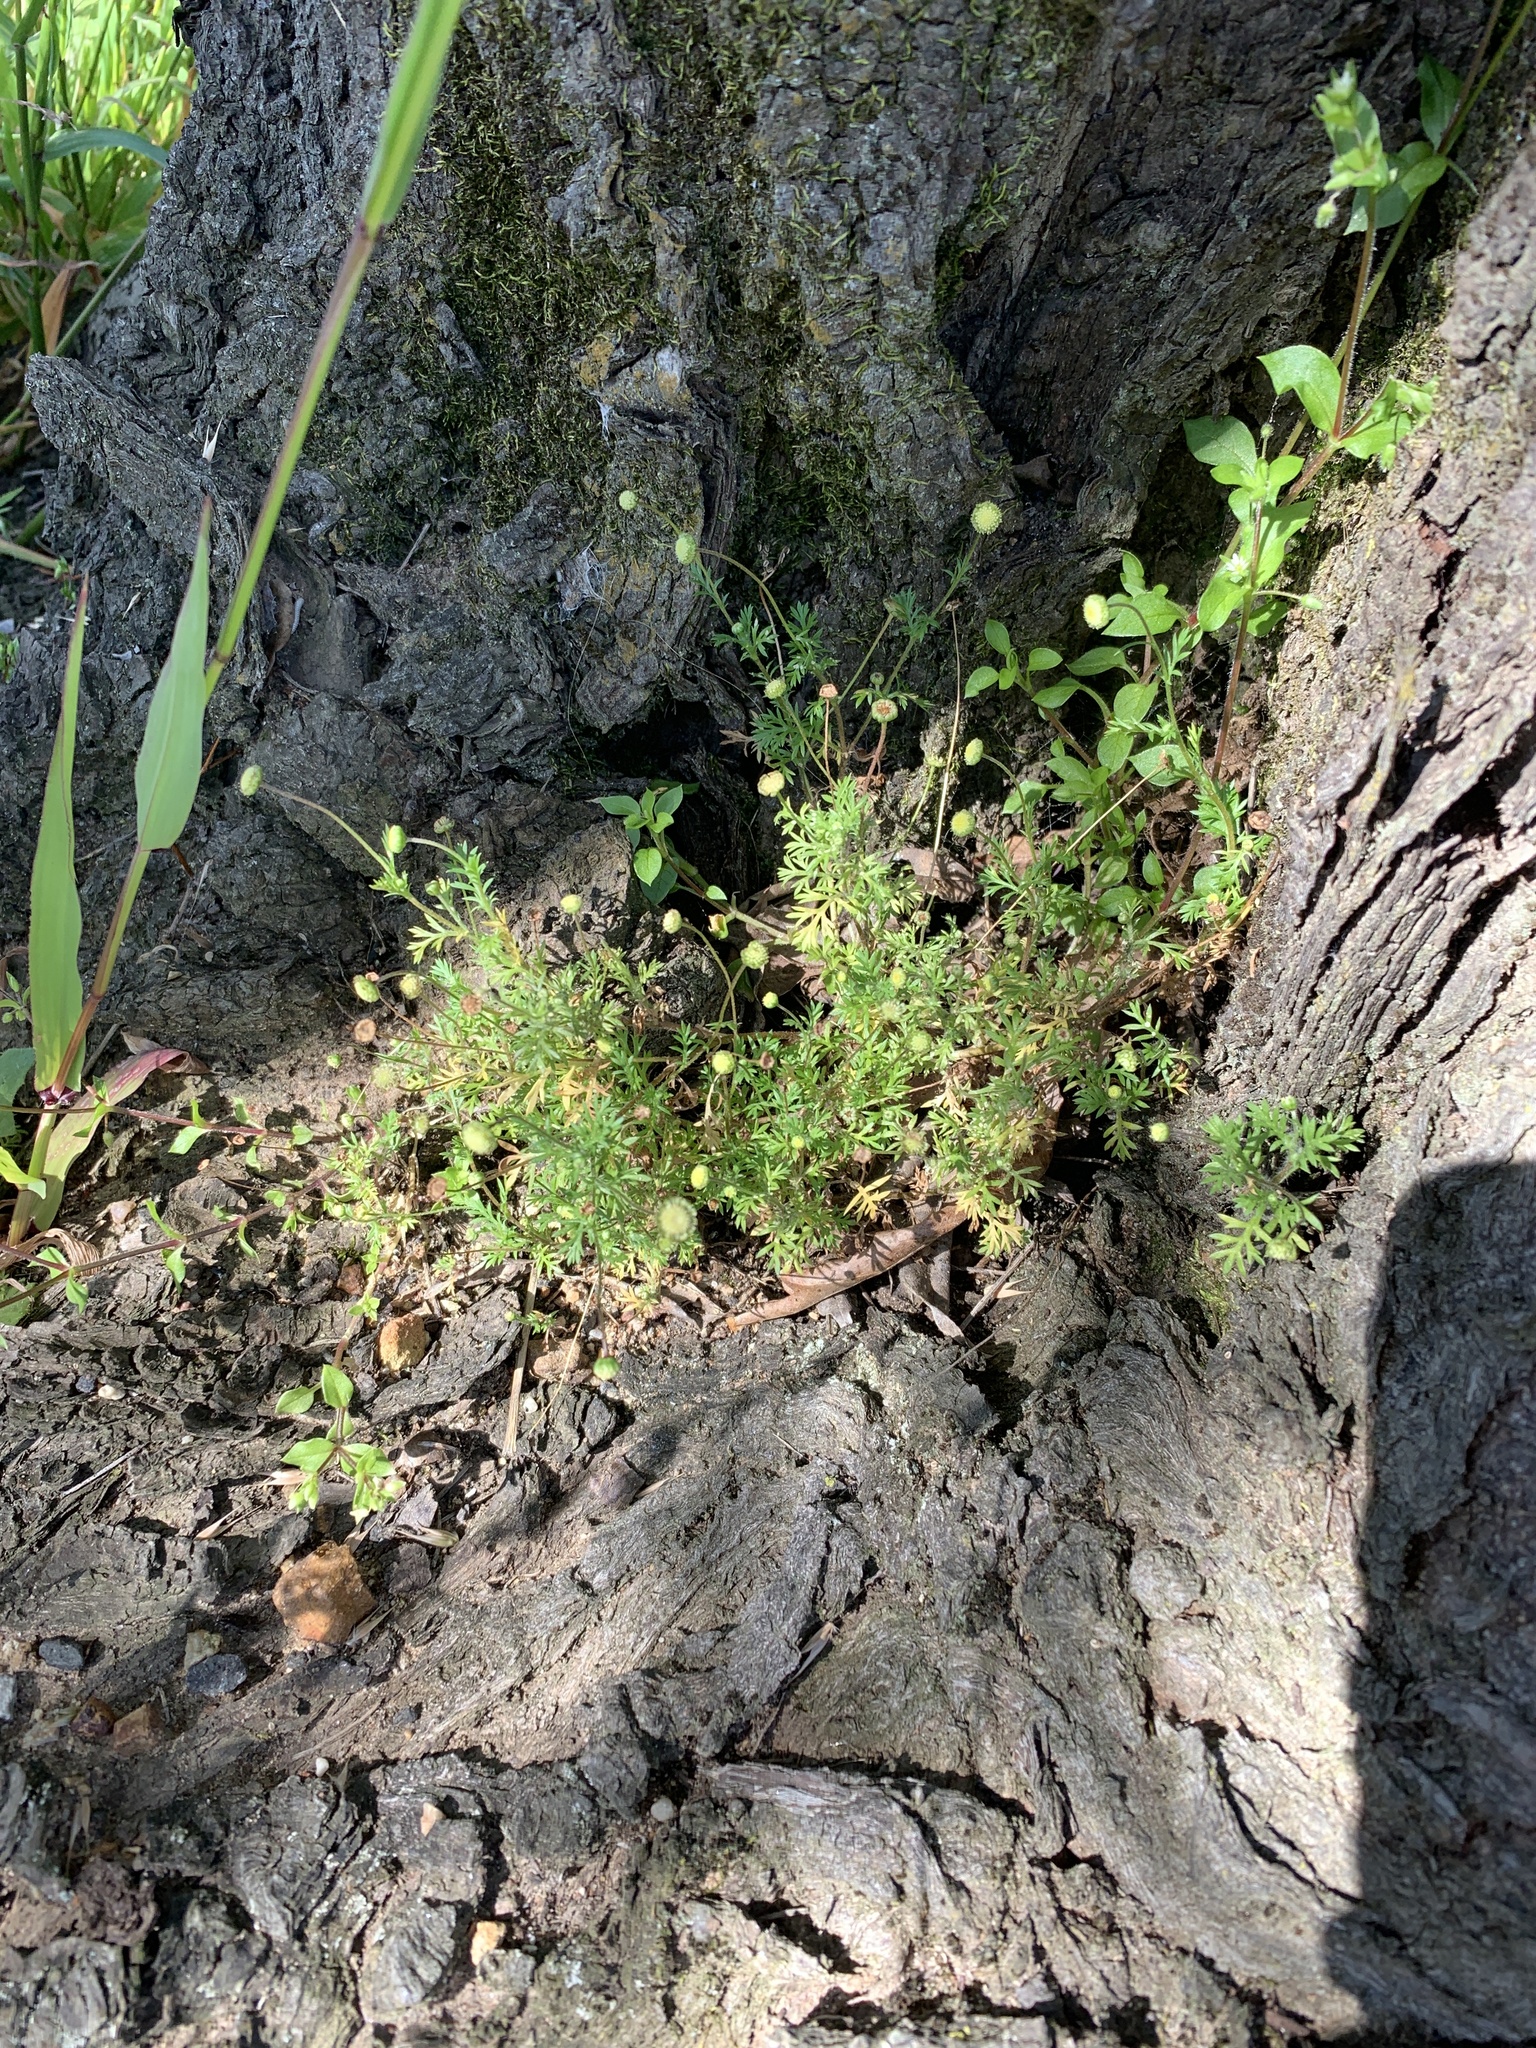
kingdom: Plantae
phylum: Tracheophyta
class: Magnoliopsida
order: Asterales
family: Asteraceae
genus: Cotula
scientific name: Cotula australis
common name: Australian waterbuttons
